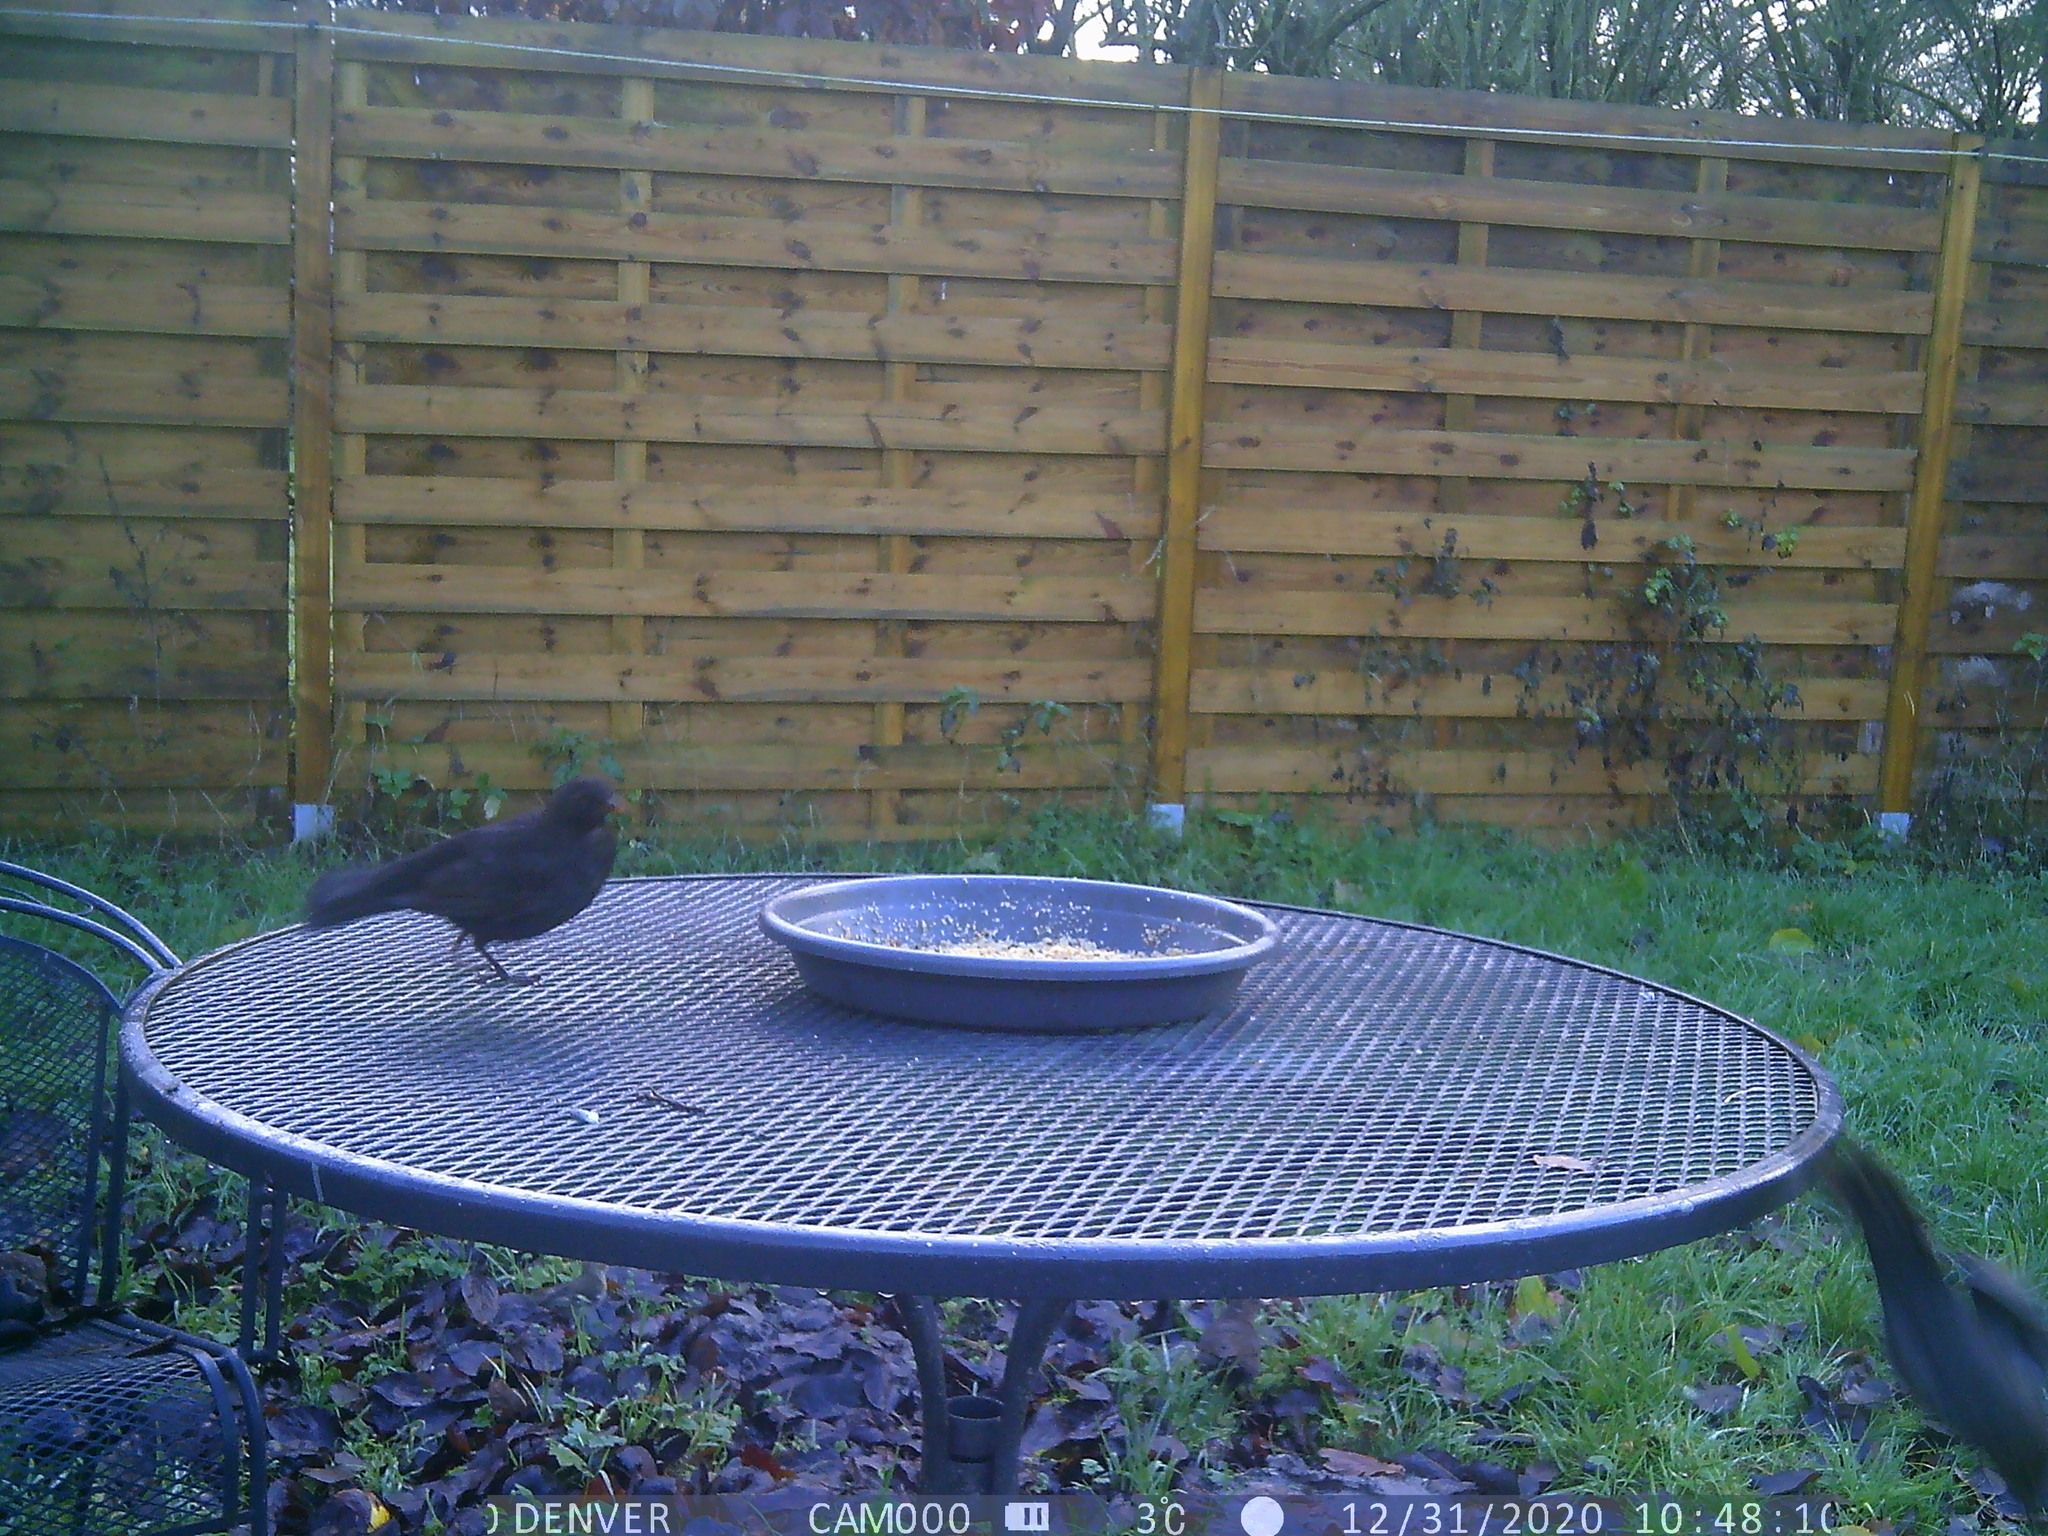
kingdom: Animalia
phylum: Chordata
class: Aves
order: Passeriformes
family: Turdidae
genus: Turdus
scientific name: Turdus merula
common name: Common blackbird
